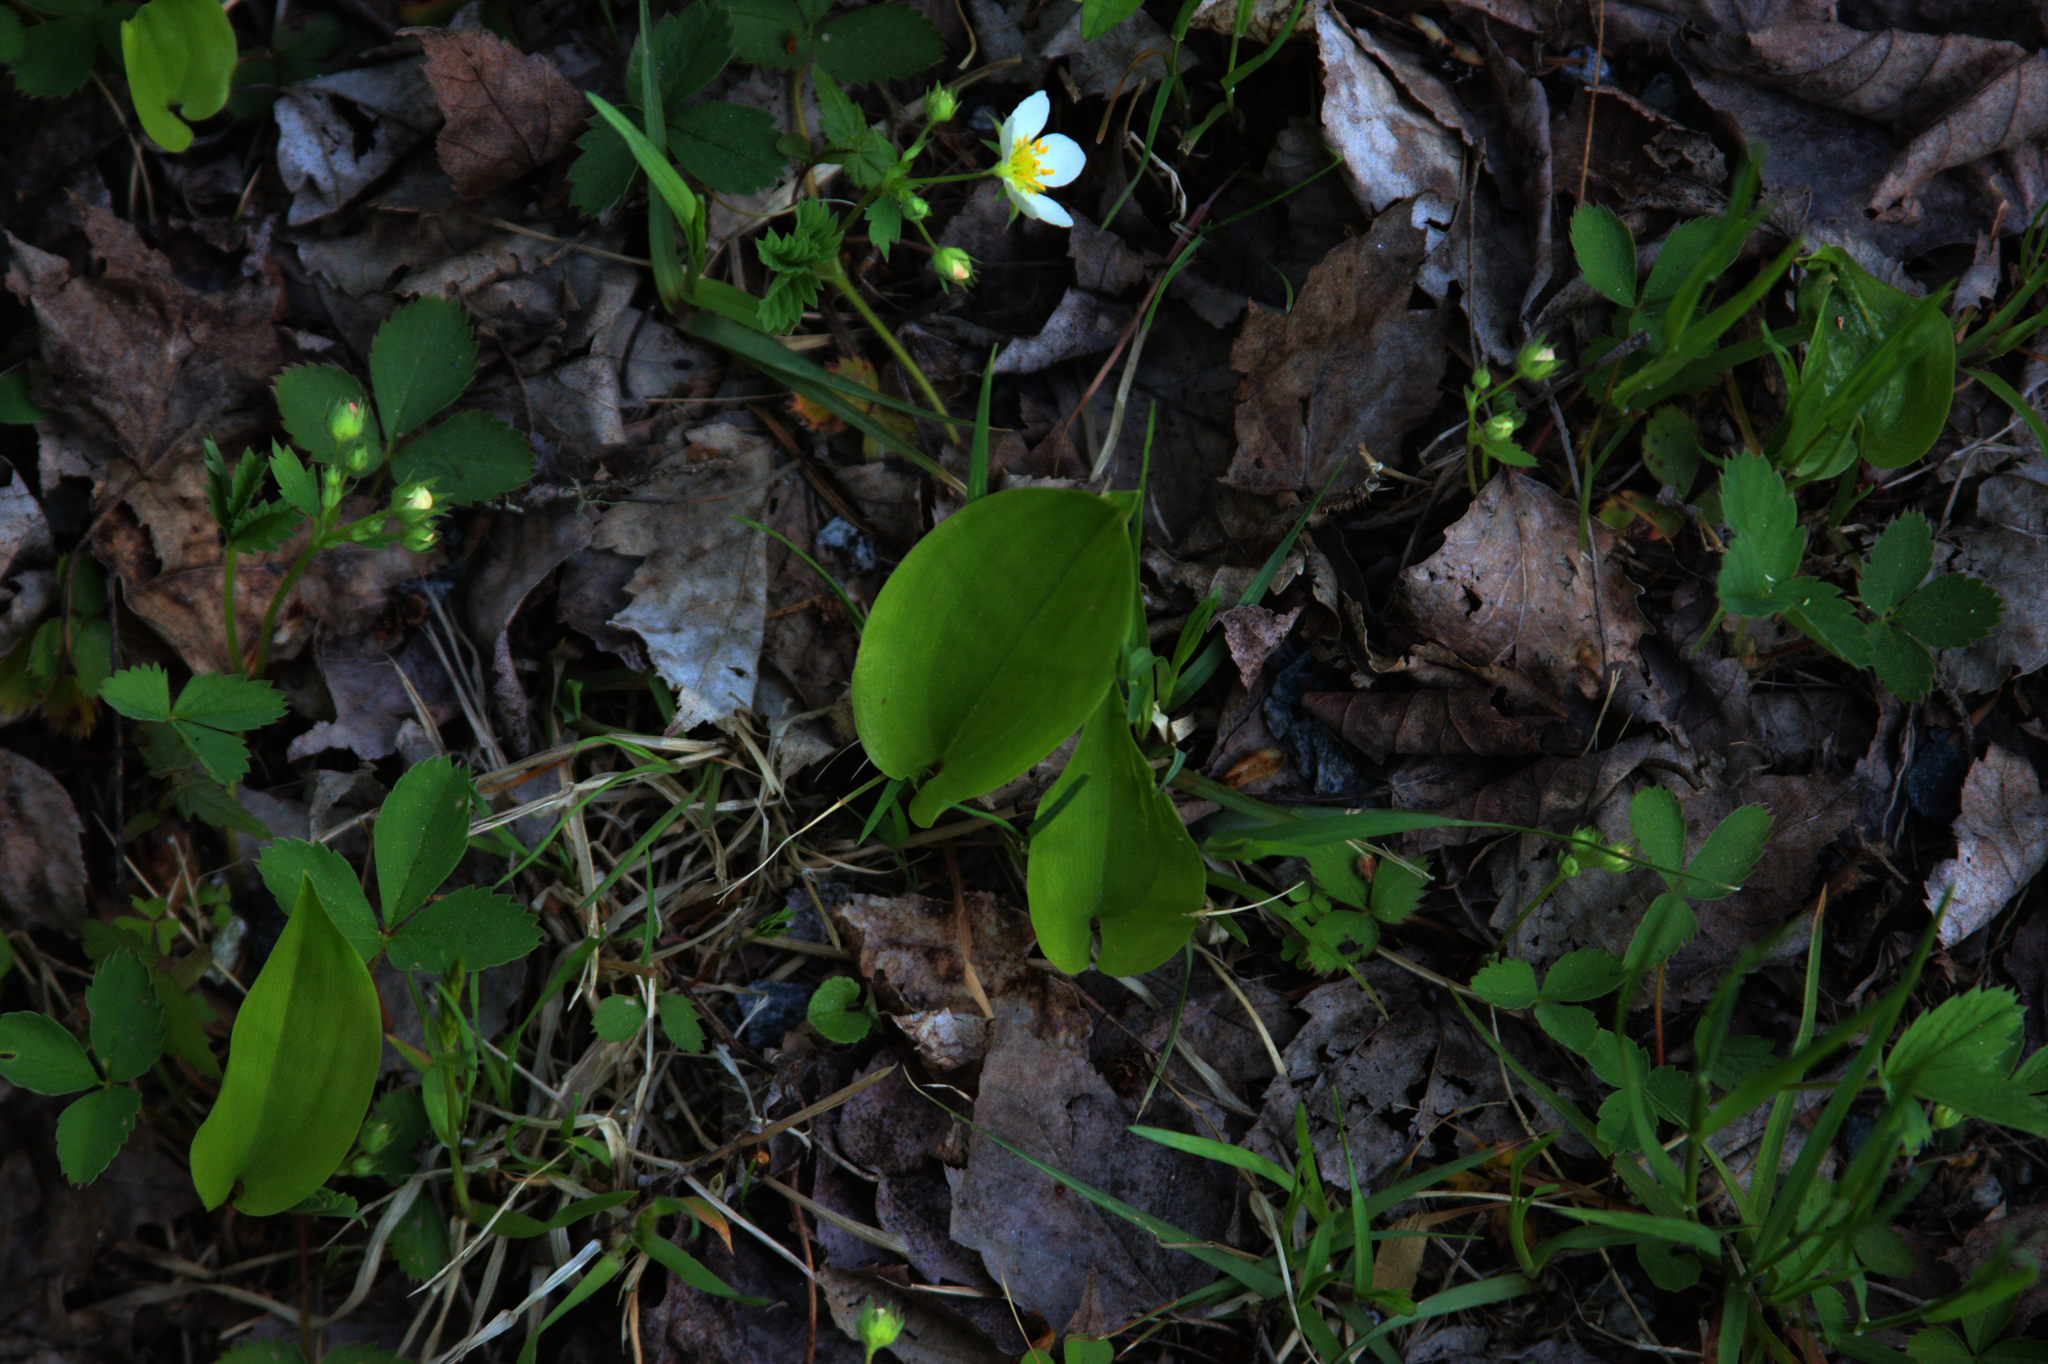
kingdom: Plantae
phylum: Tracheophyta
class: Liliopsida
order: Asparagales
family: Asparagaceae
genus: Maianthemum
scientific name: Maianthemum canadense
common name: False lily-of-the-valley
